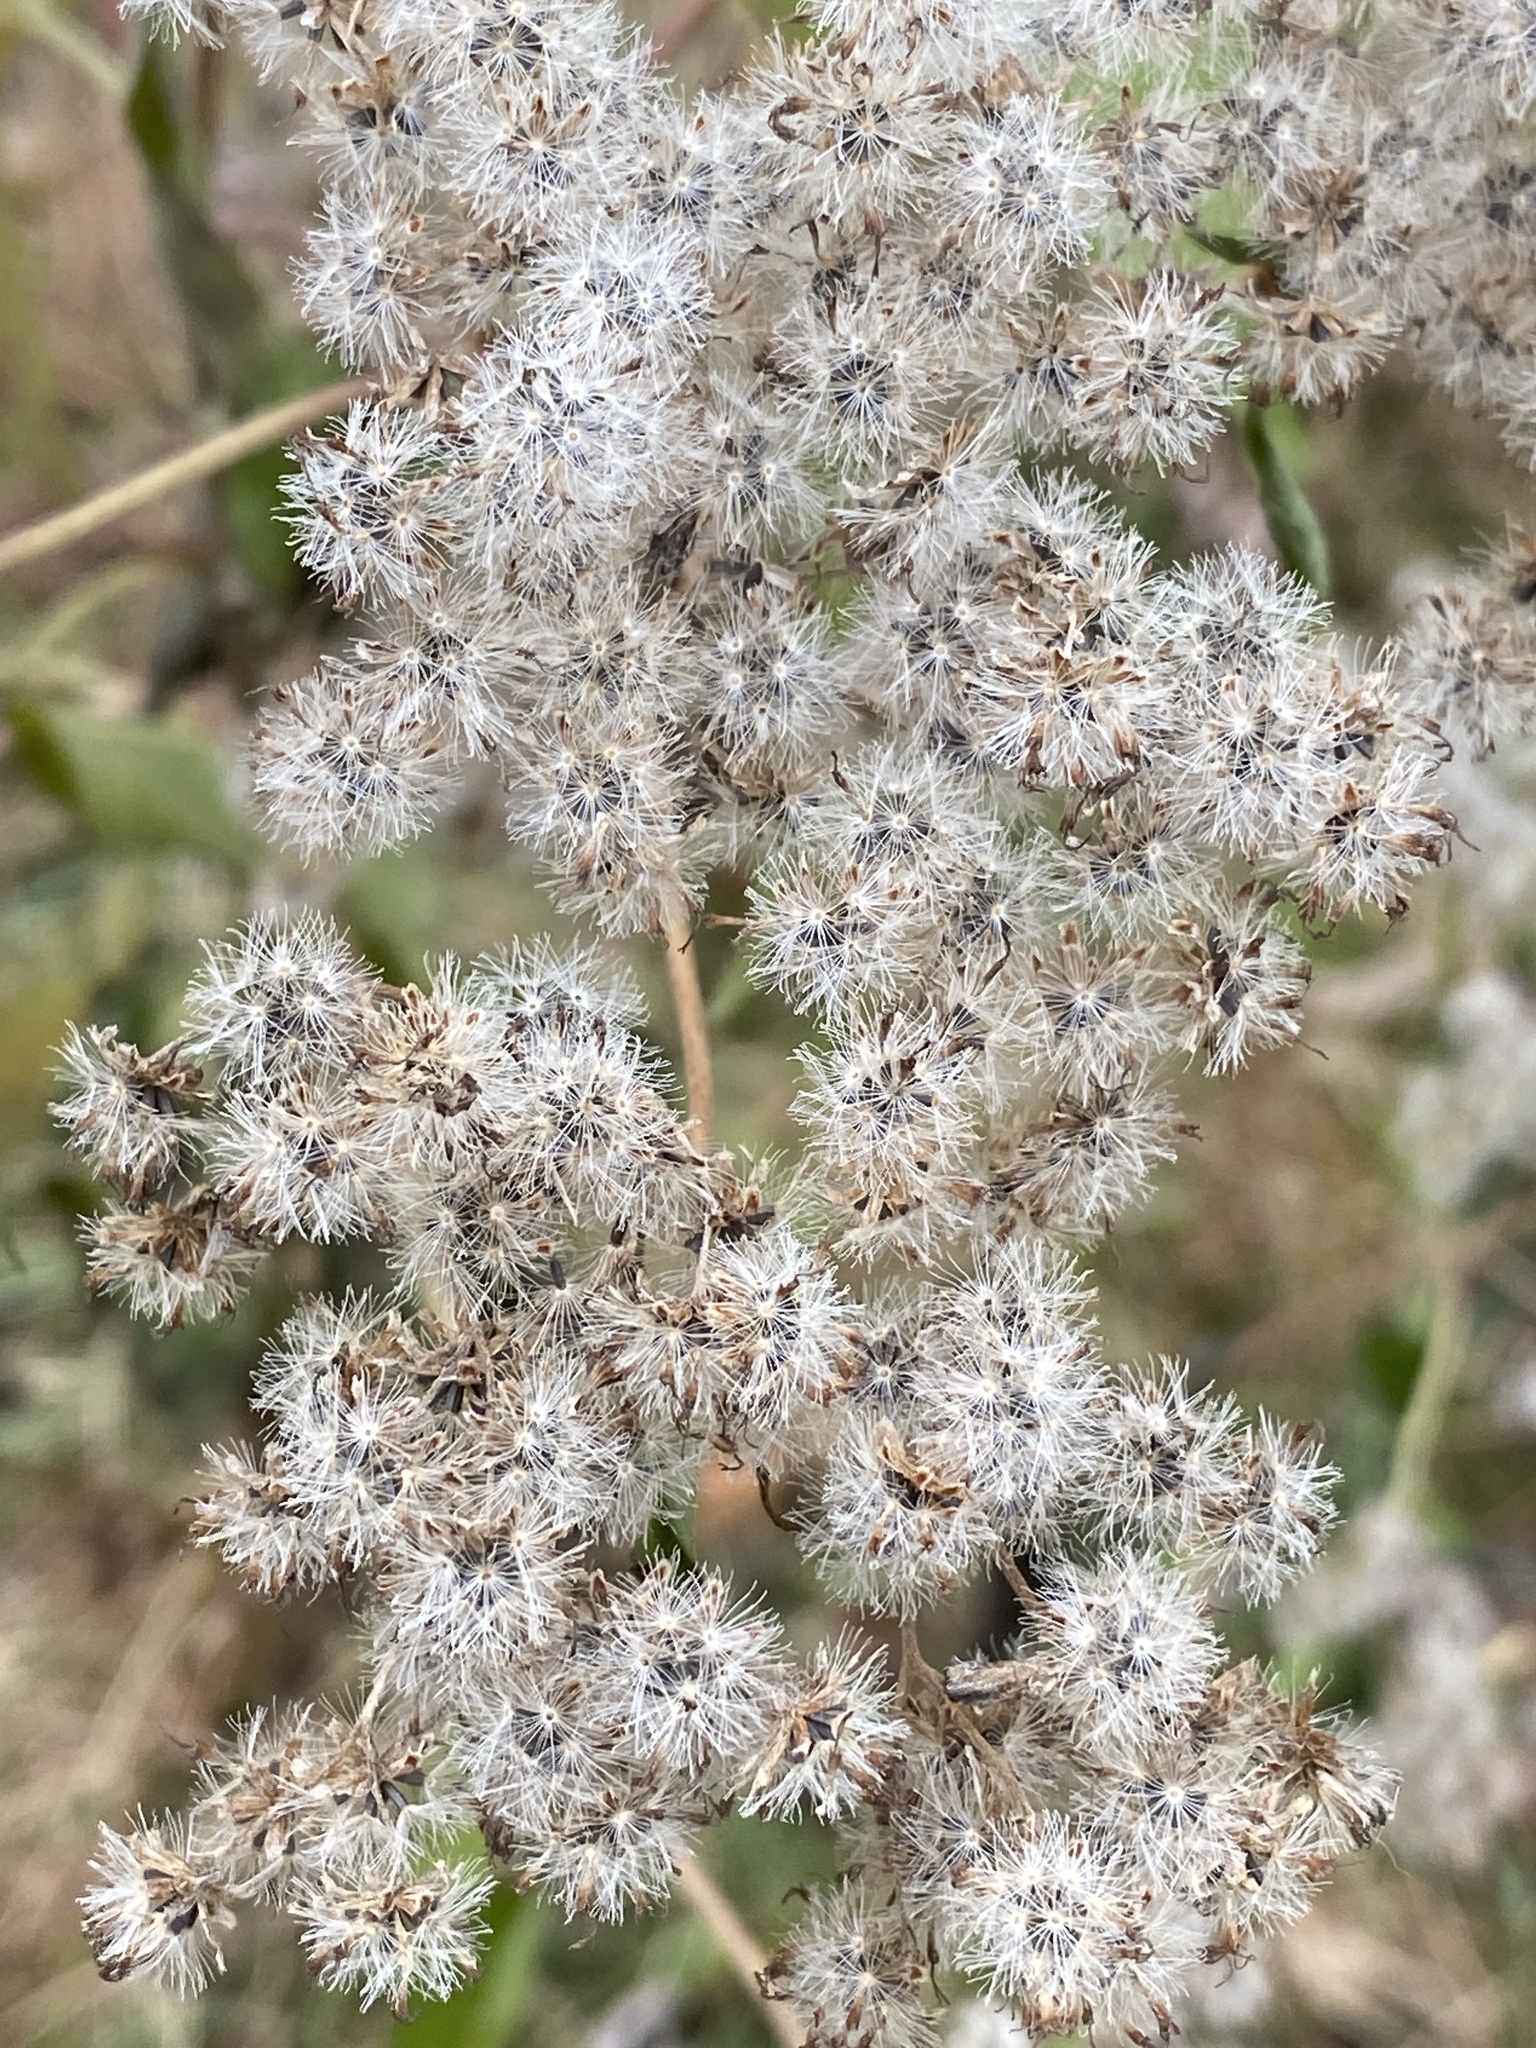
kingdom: Plantae
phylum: Tracheophyta
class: Magnoliopsida
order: Asterales
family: Asteraceae
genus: Eupatorium
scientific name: Eupatorium serotinum
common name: Late boneset
